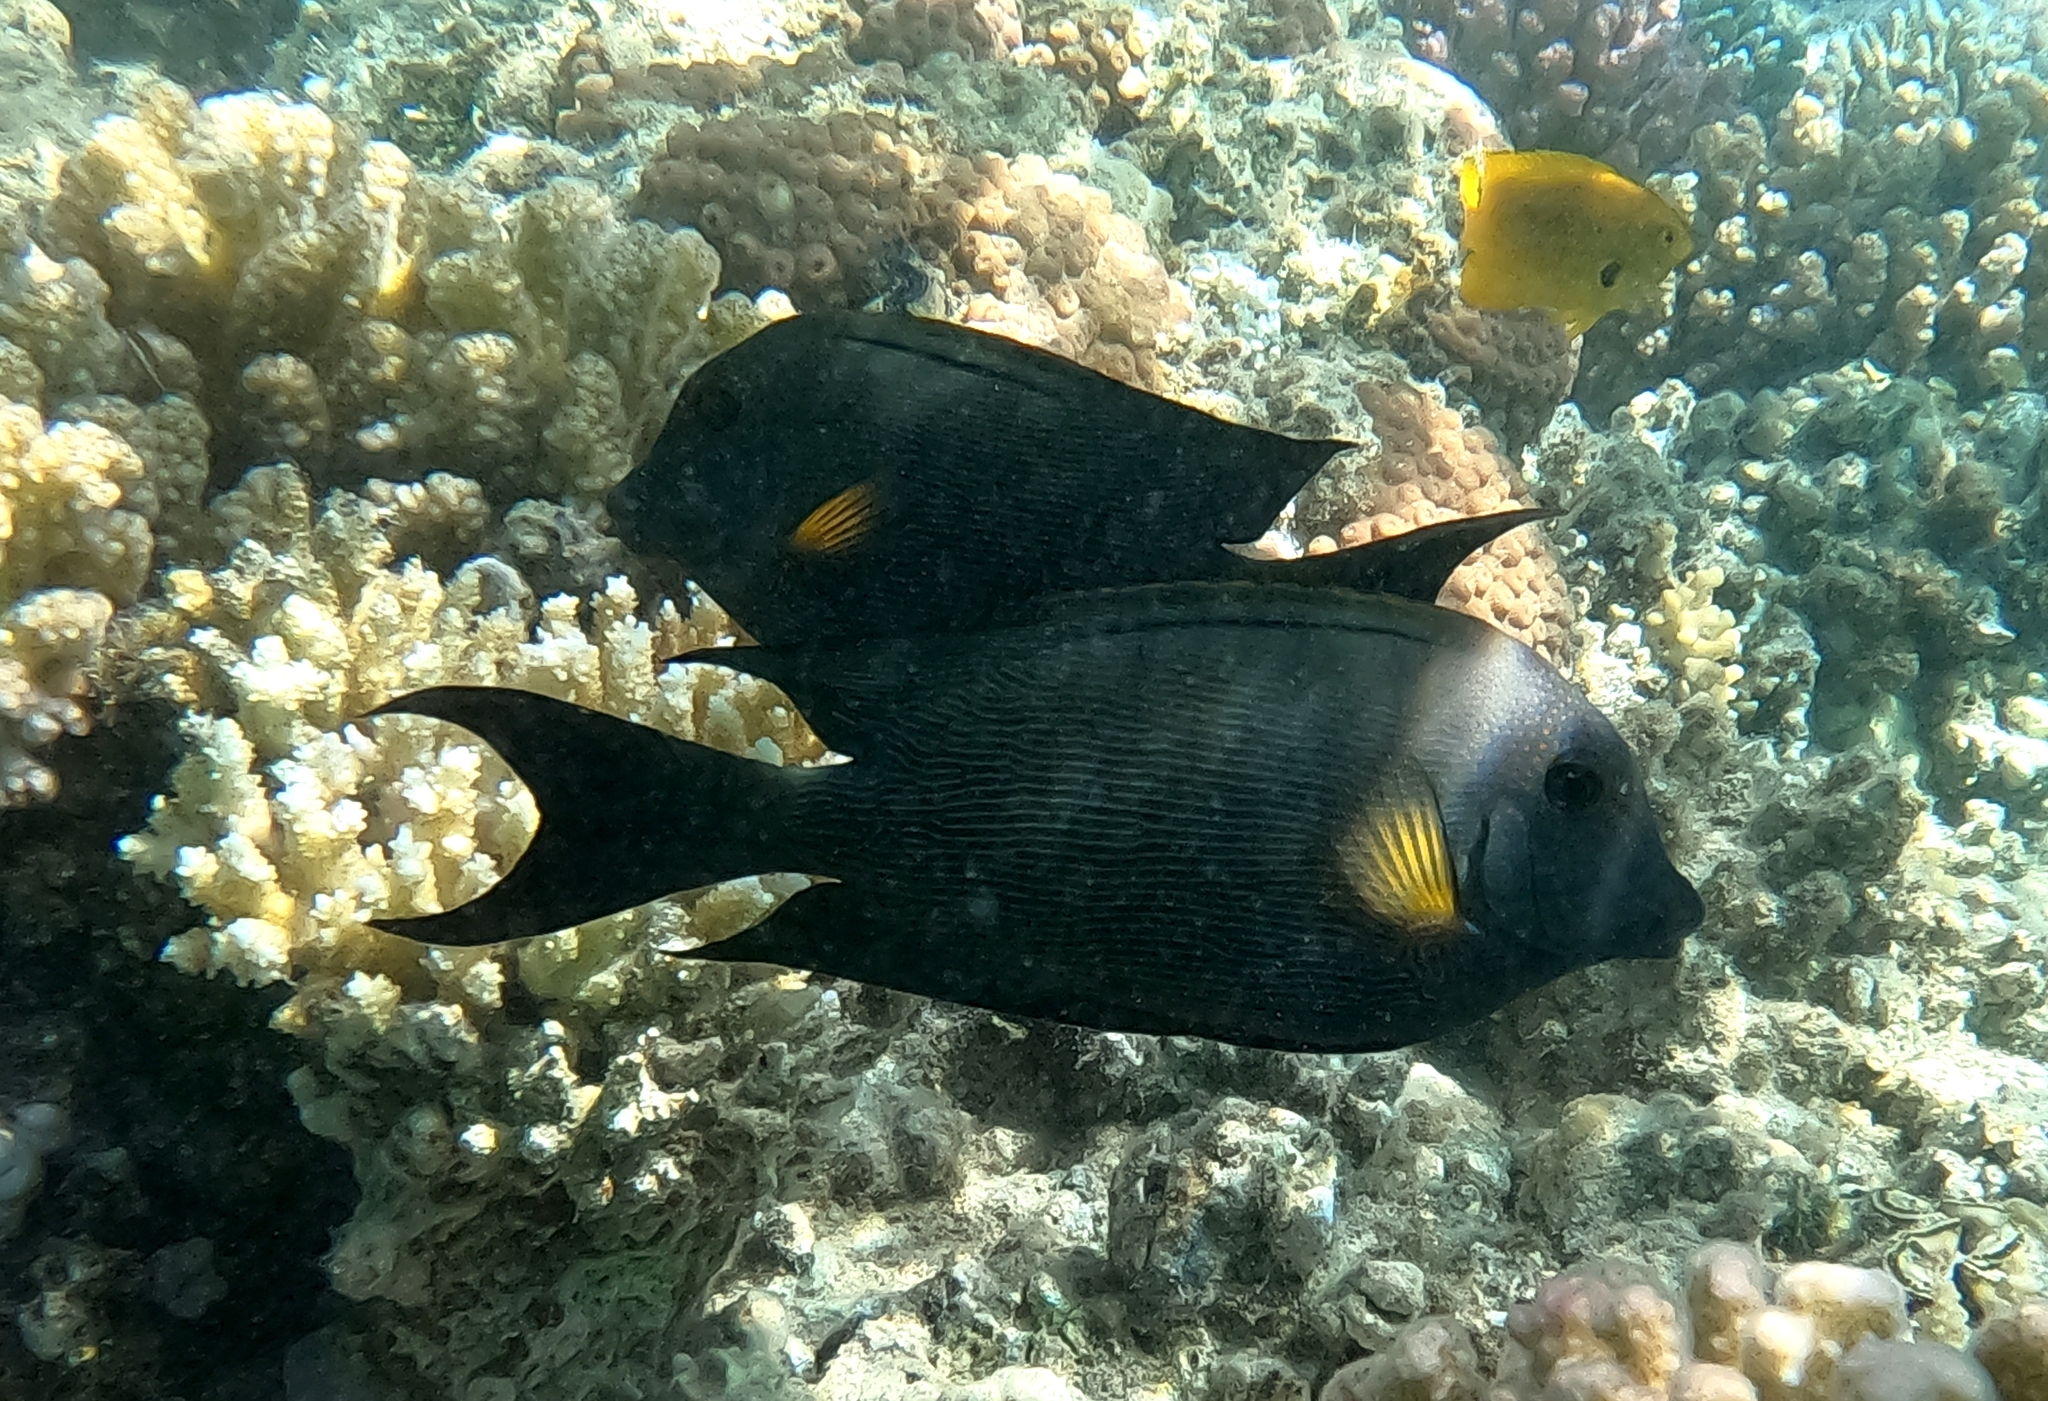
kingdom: Animalia
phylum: Chordata
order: Perciformes
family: Acanthuridae
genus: Ctenochaetus
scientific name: Ctenochaetus striatus
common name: Bristle-toothed surgeonfish
